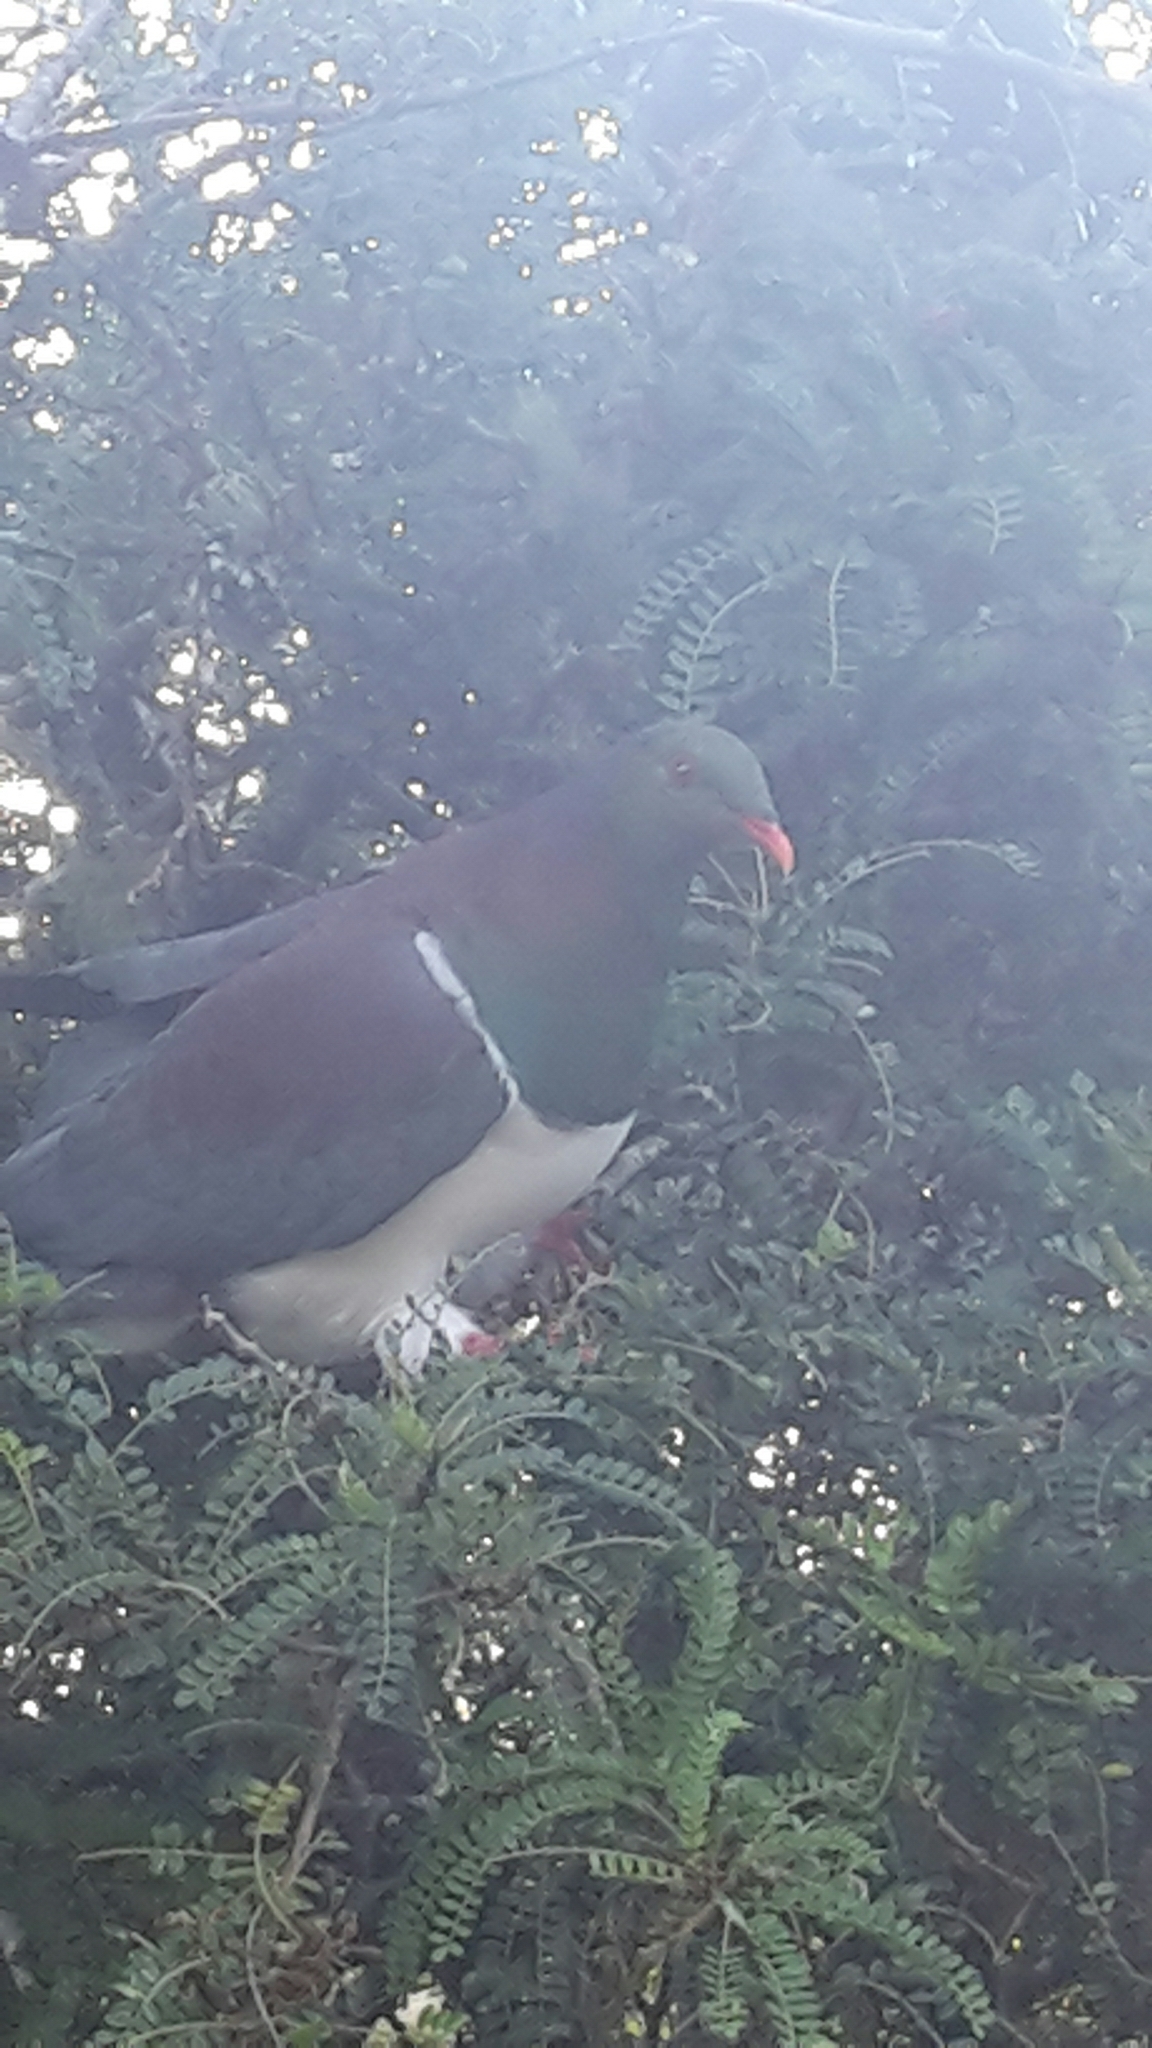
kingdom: Animalia
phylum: Chordata
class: Aves
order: Columbiformes
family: Columbidae
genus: Hemiphaga
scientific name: Hemiphaga novaeseelandiae
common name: New zealand pigeon
